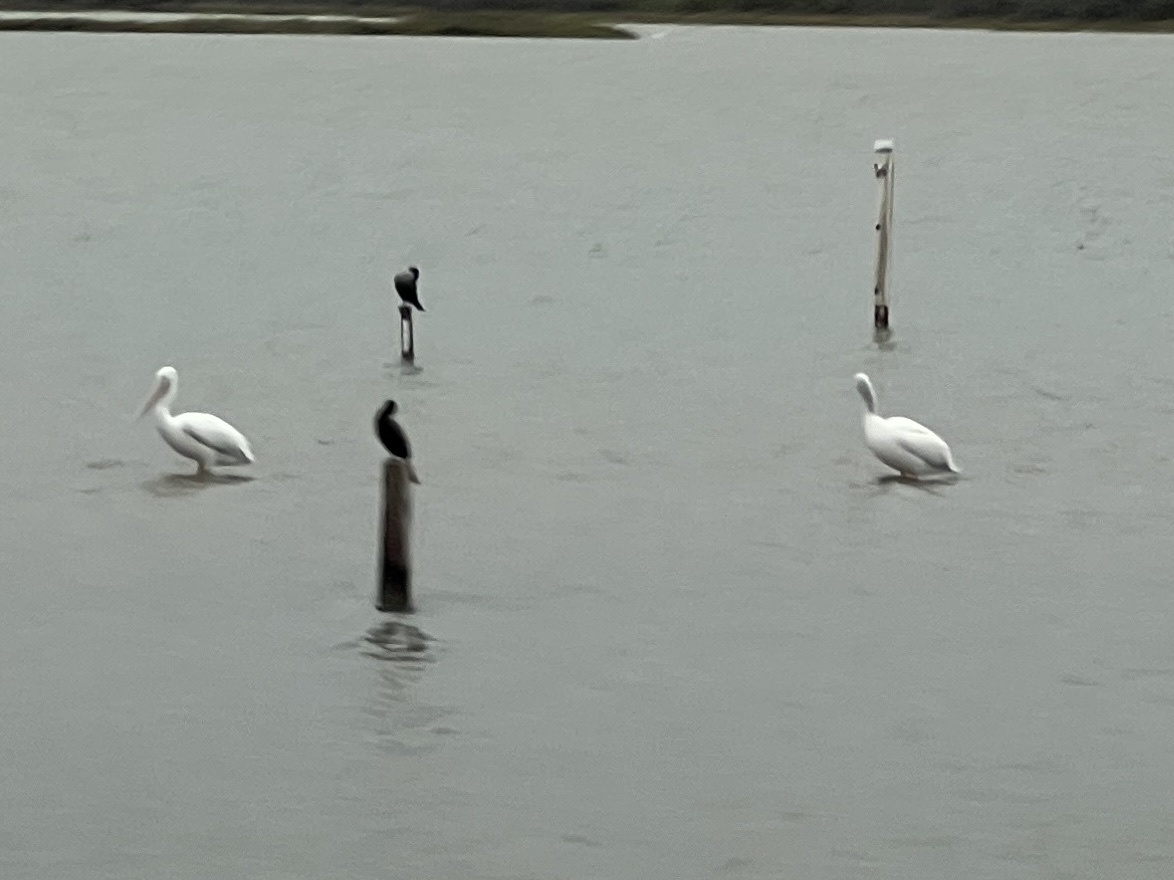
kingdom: Animalia
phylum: Chordata
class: Aves
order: Pelecaniformes
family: Pelecanidae
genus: Pelecanus
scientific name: Pelecanus erythrorhynchos
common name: American white pelican
